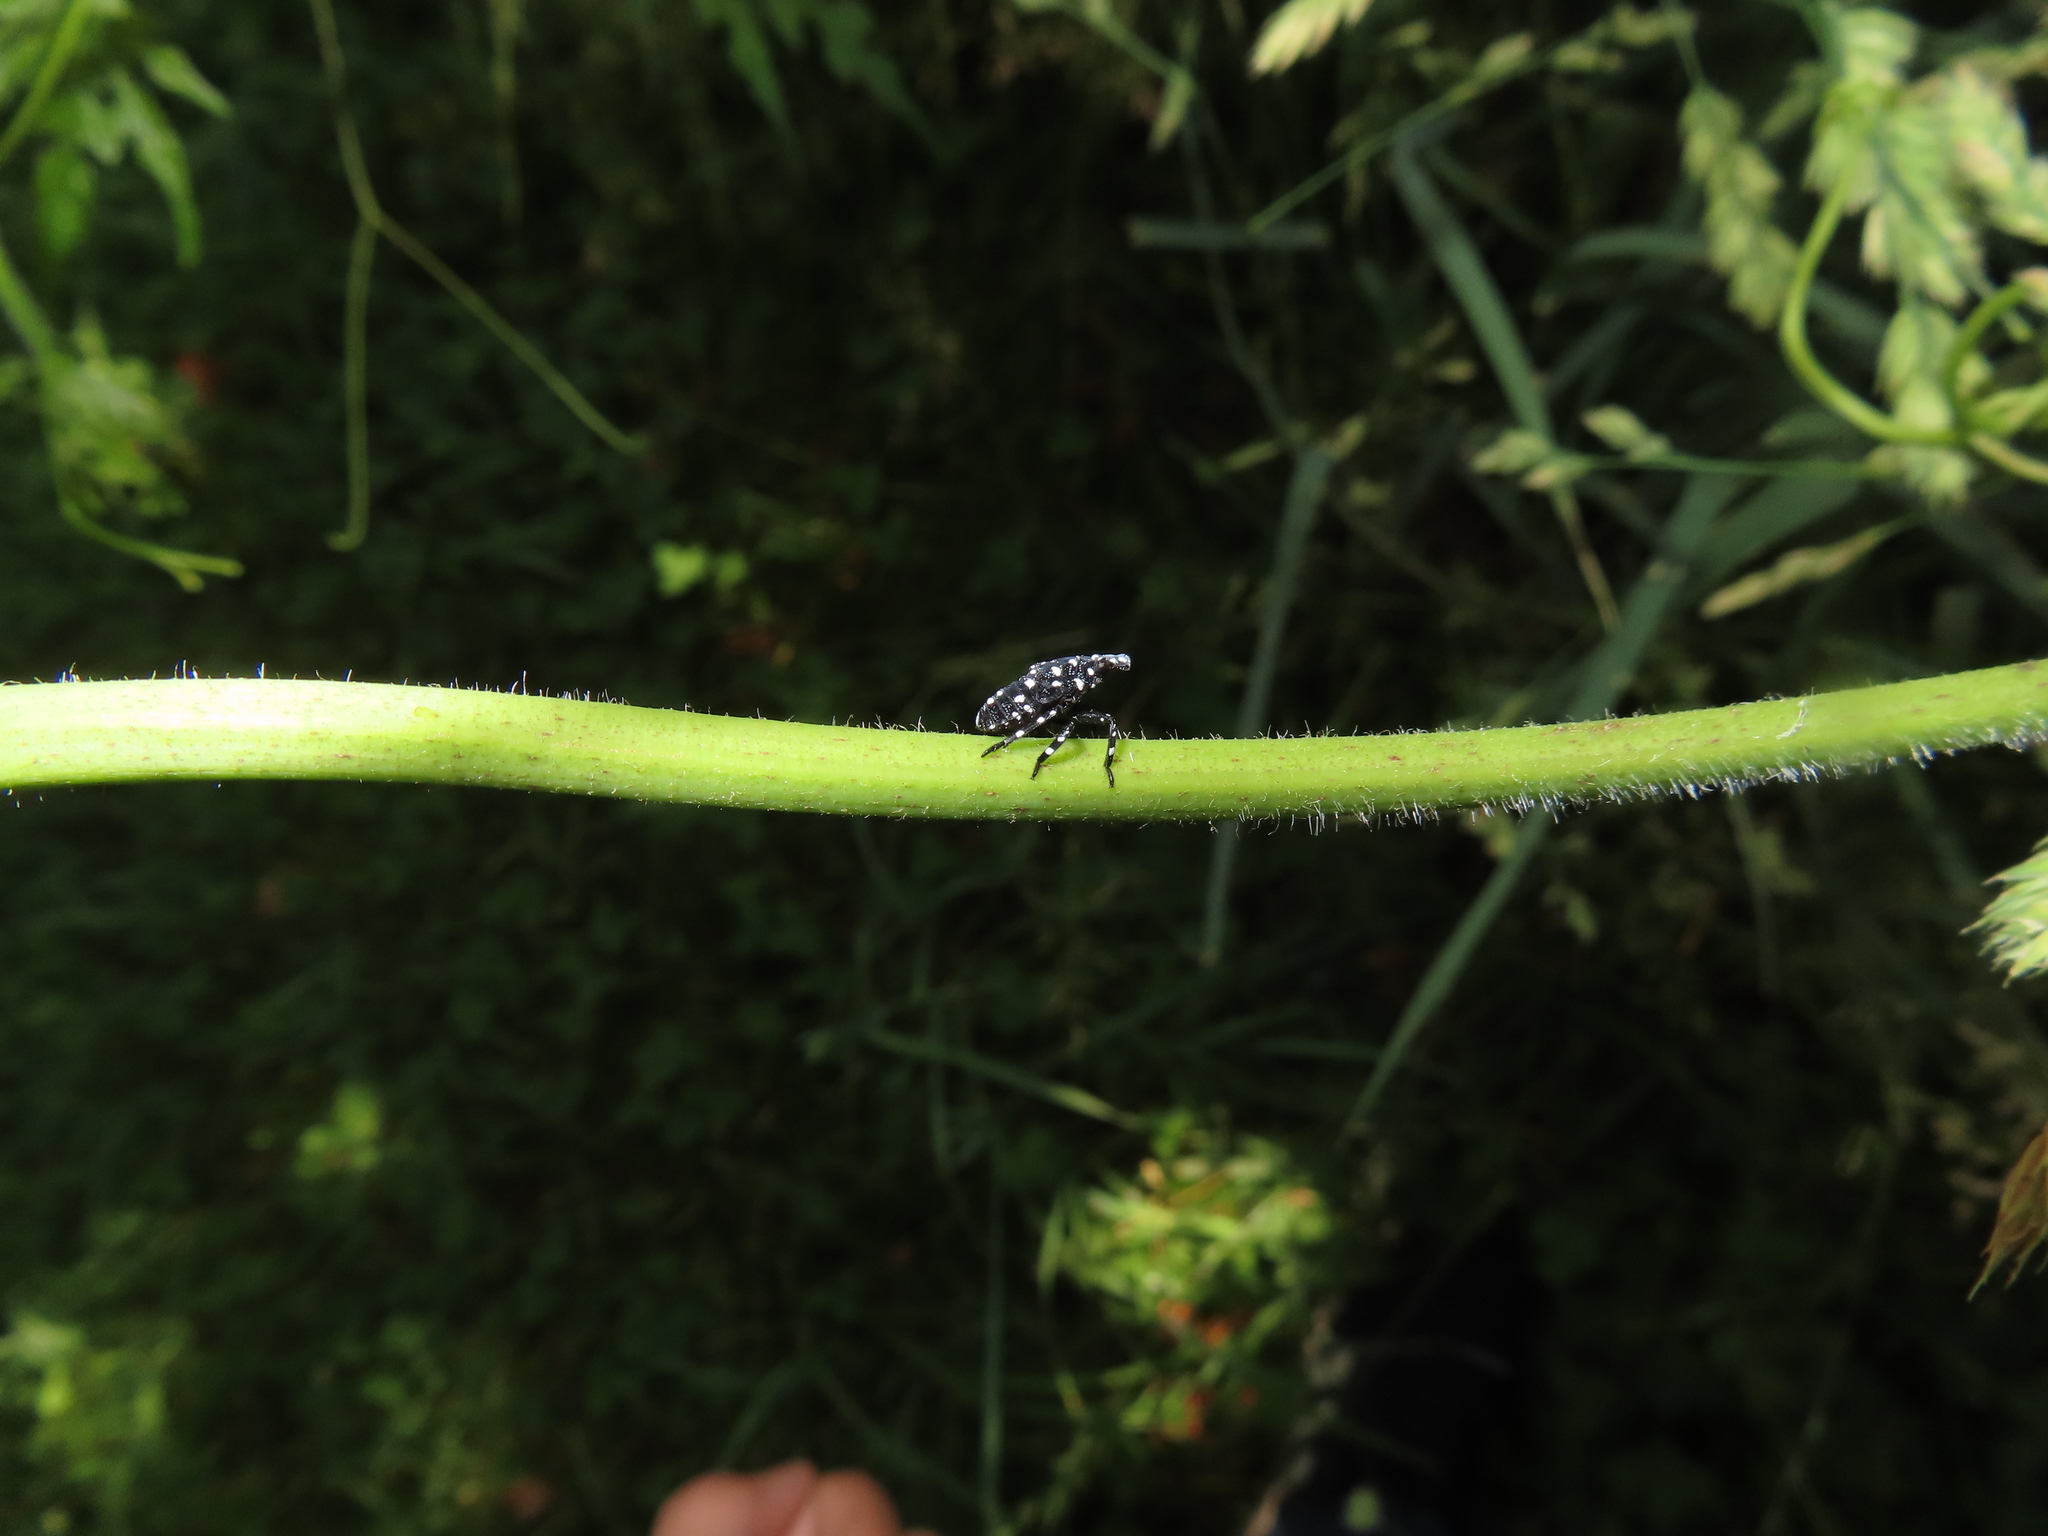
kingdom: Animalia
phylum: Arthropoda
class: Insecta
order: Hemiptera
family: Fulgoridae
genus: Lycorma
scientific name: Lycorma delicatula
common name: Spotted lanternfly
